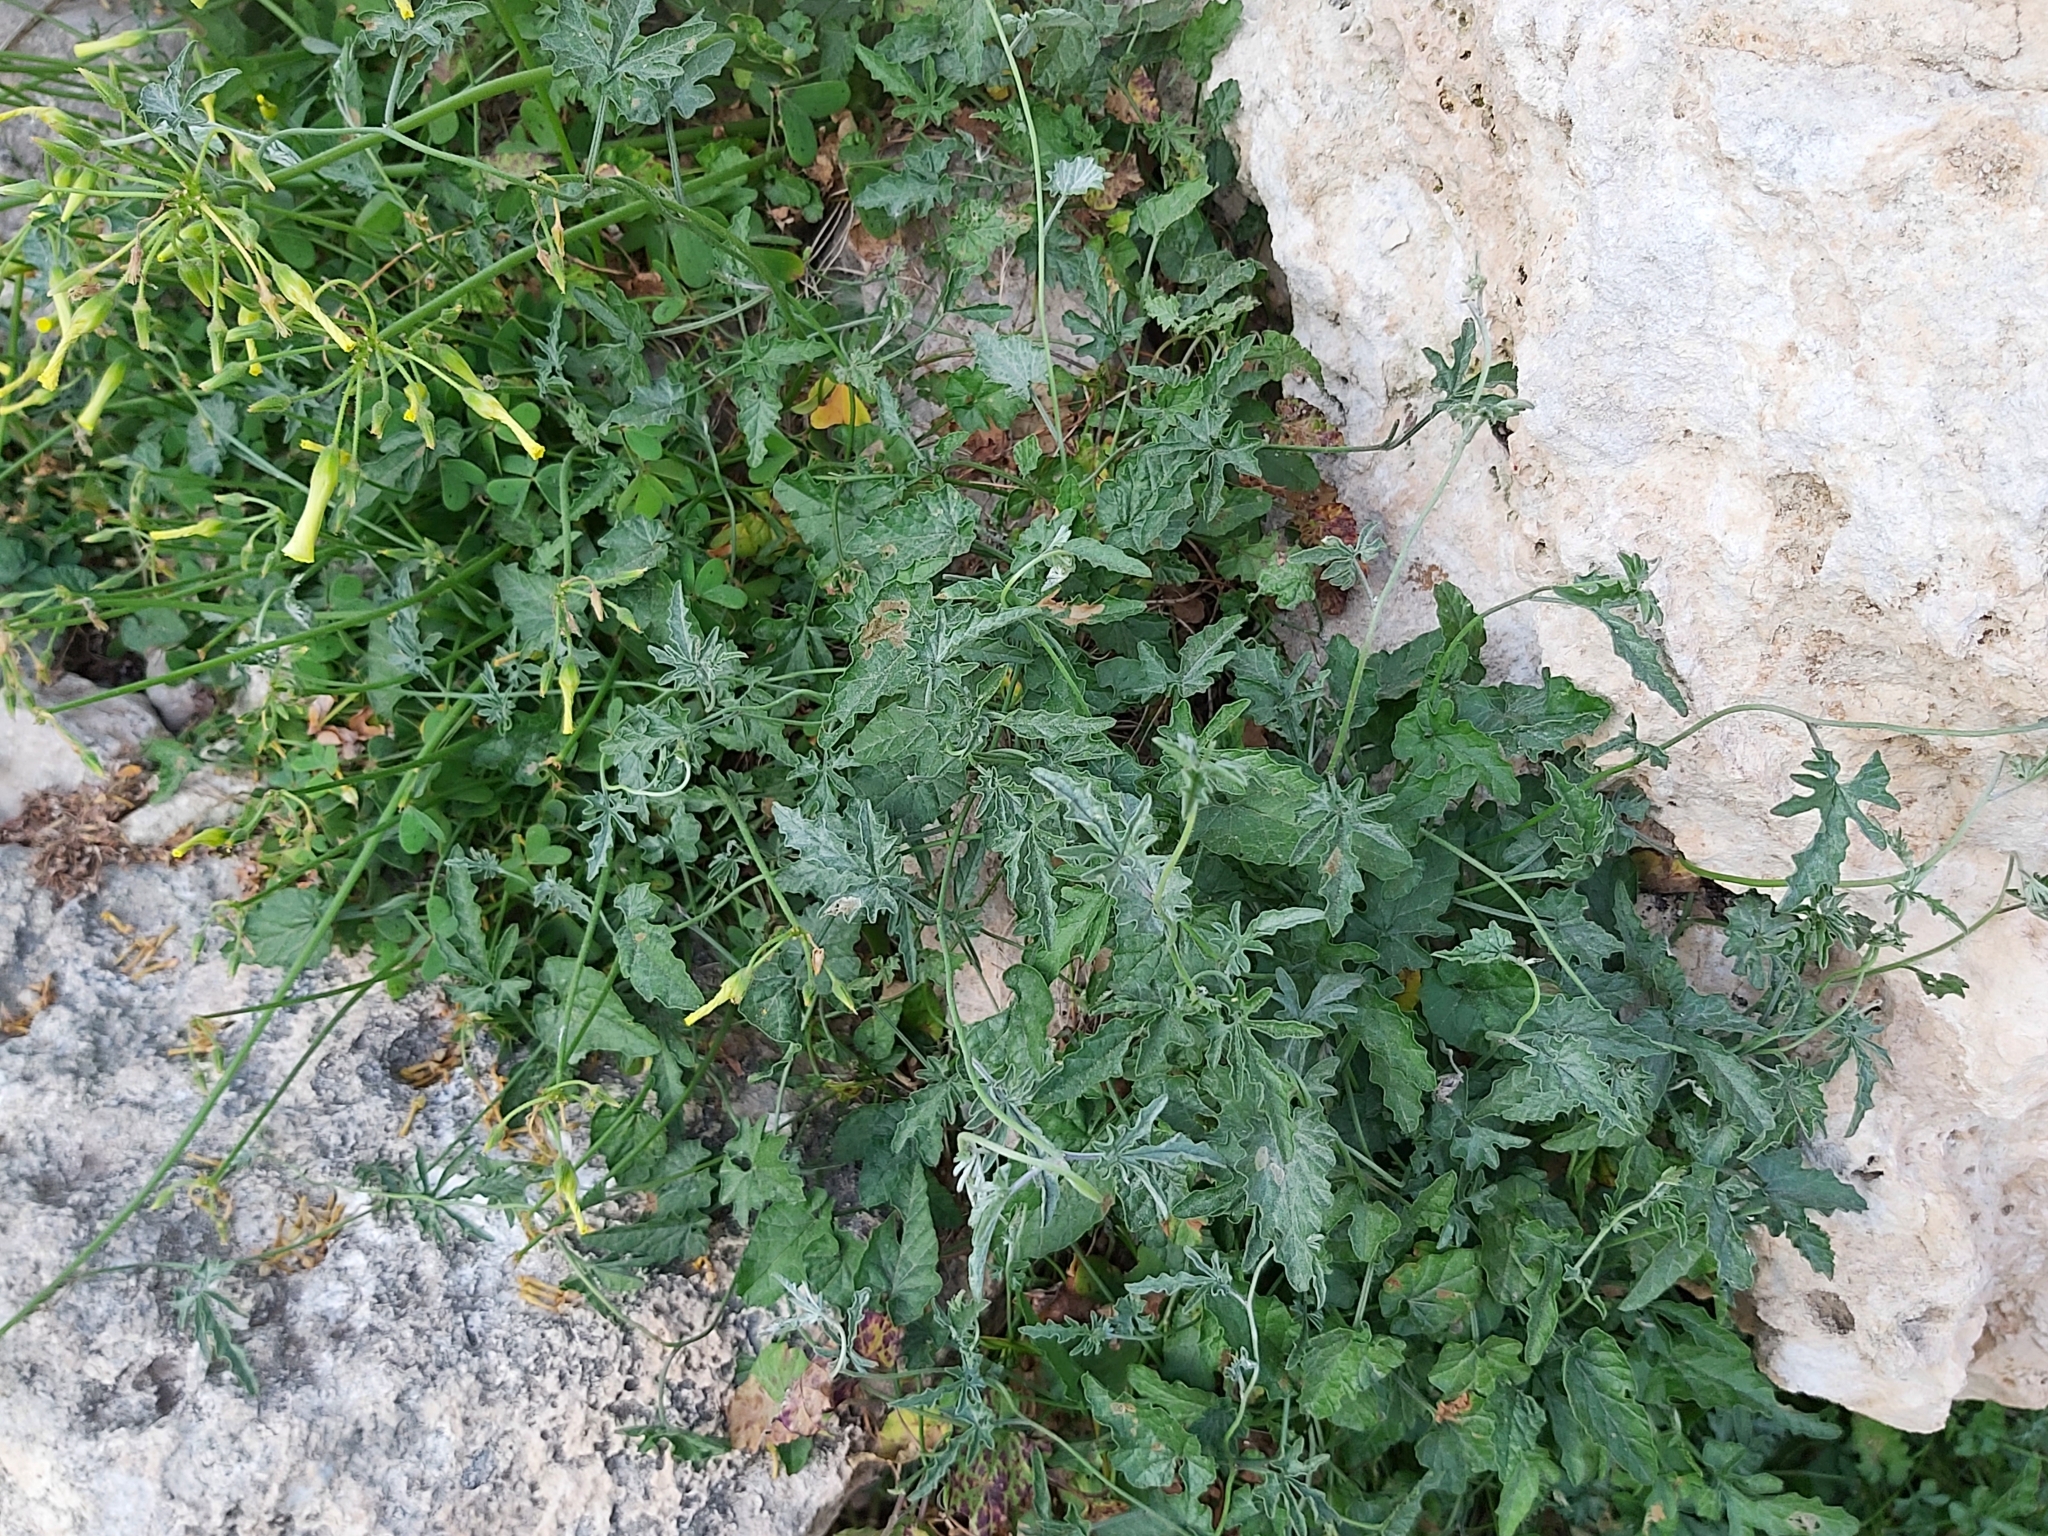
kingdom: Plantae
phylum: Tracheophyta
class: Magnoliopsida
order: Solanales
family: Convolvulaceae
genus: Convolvulus
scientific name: Convolvulus elegantissimus
